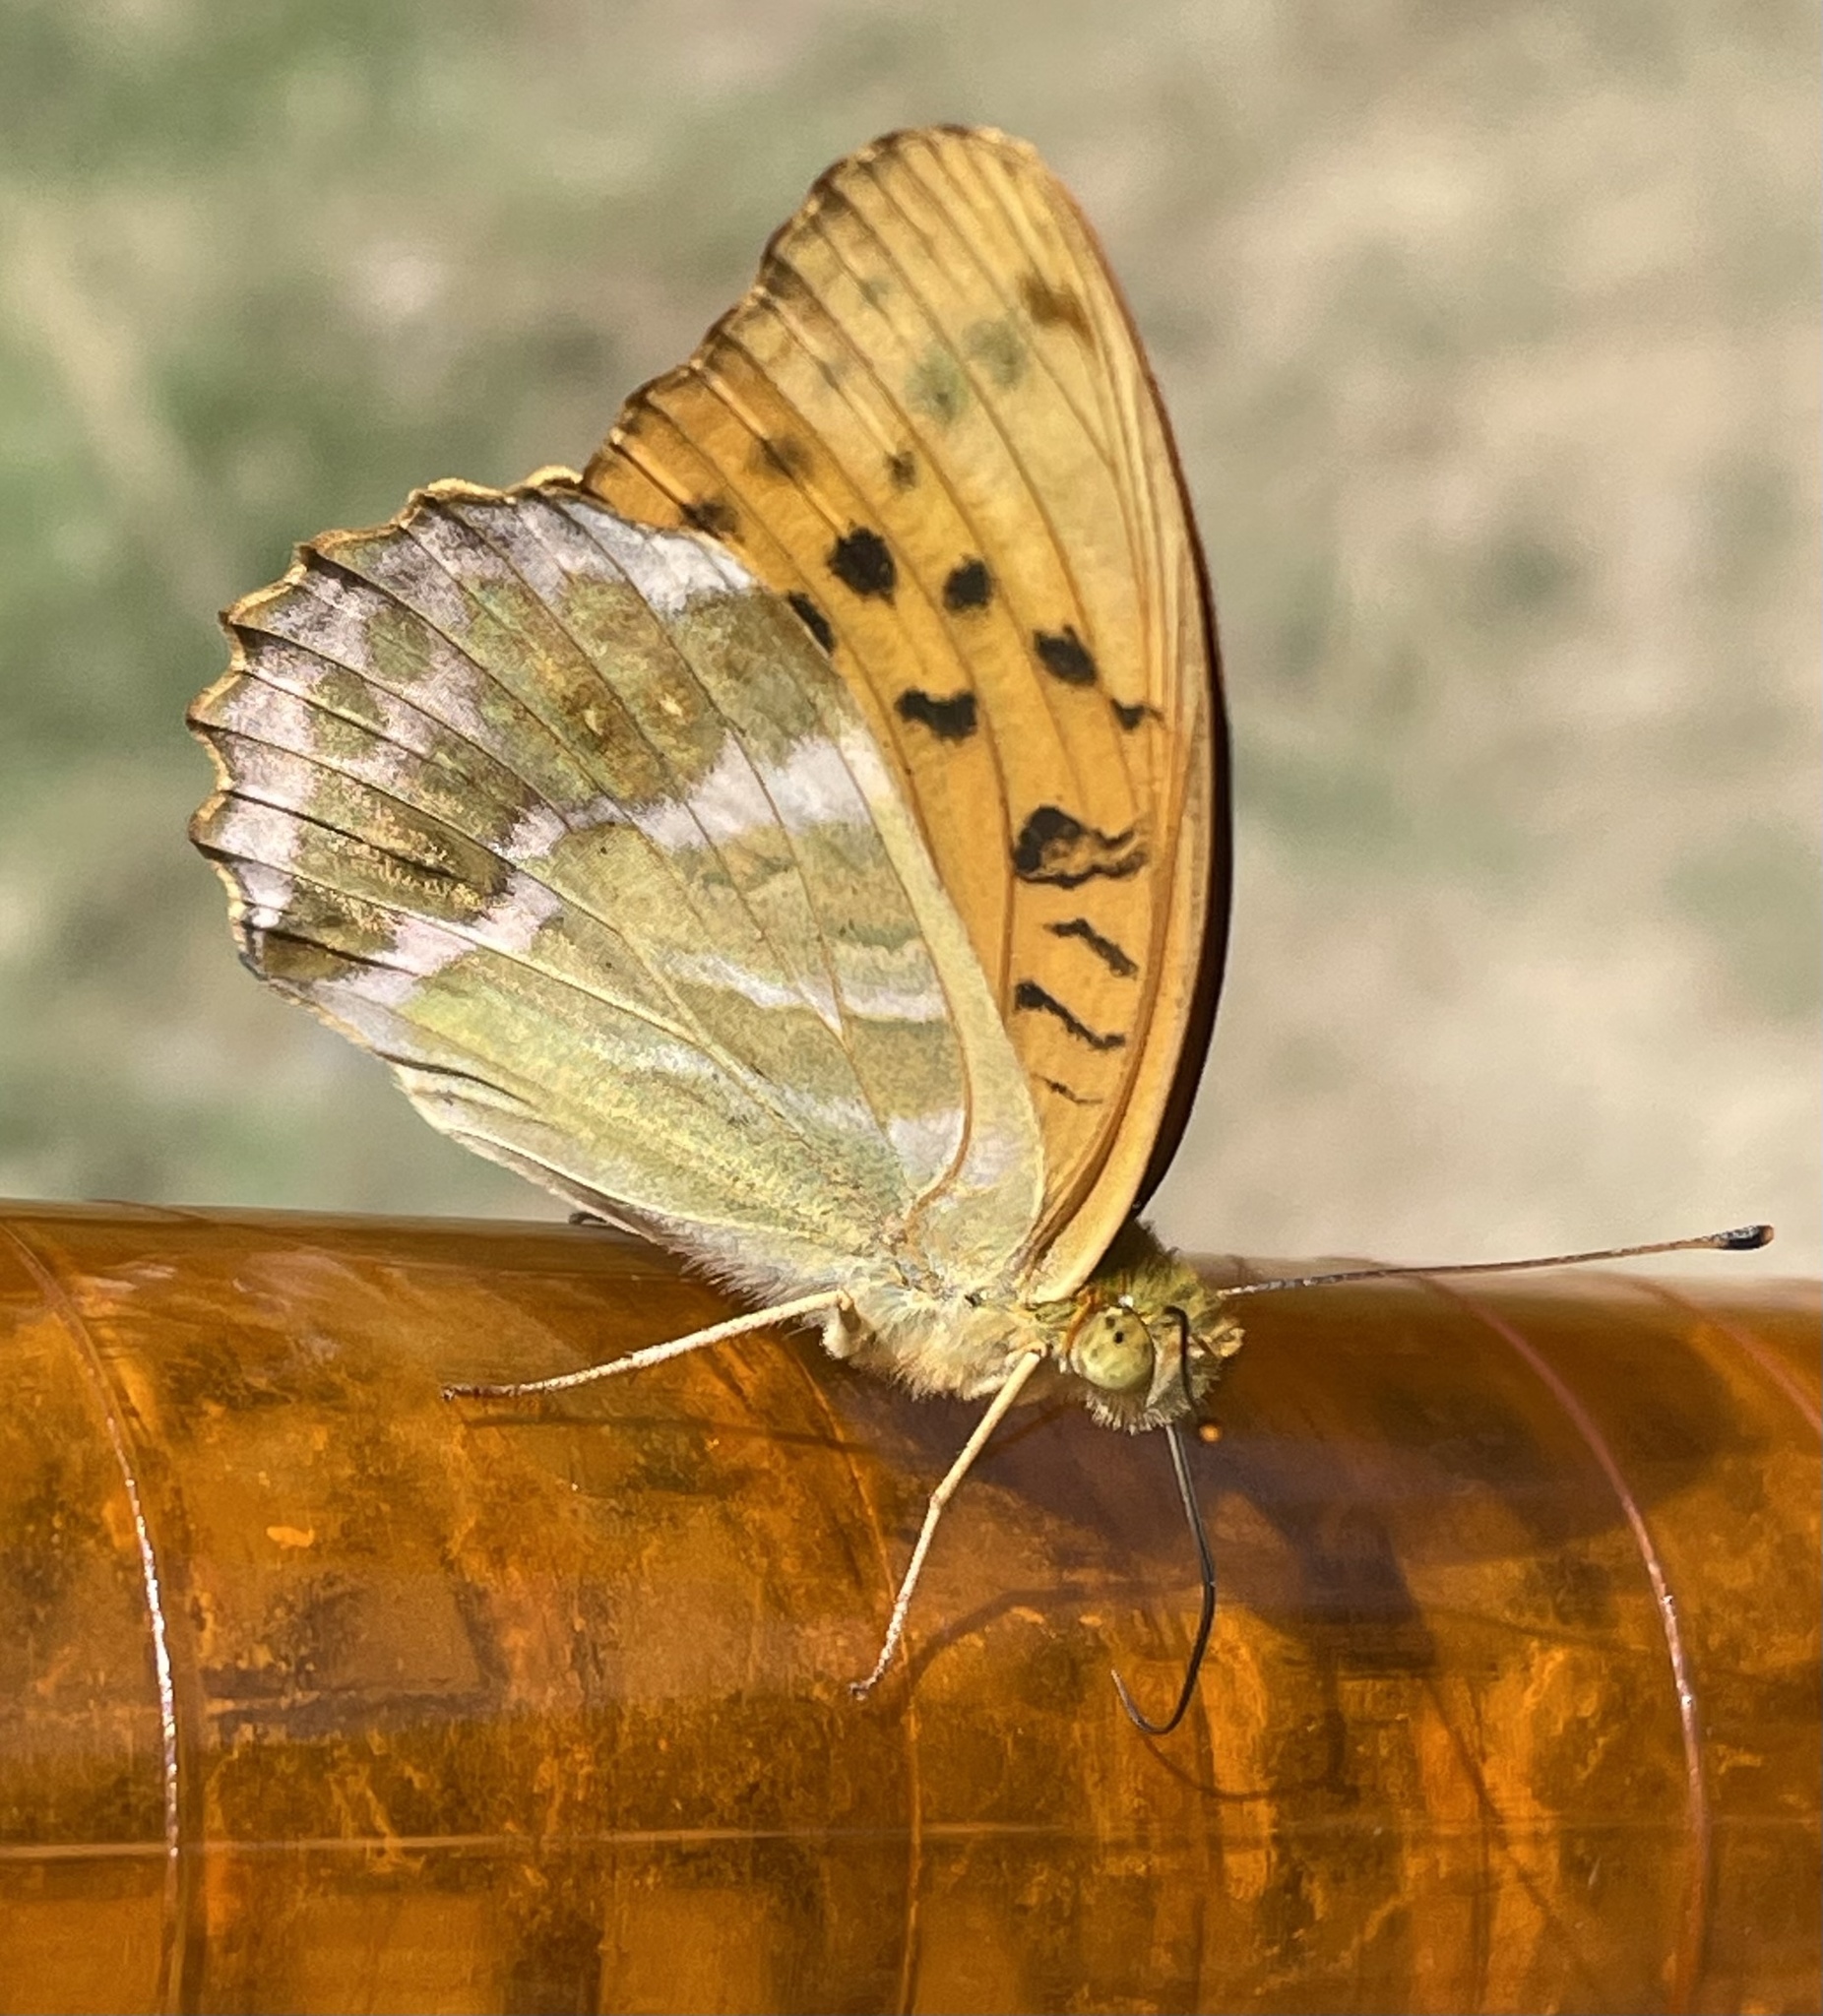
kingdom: Animalia
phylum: Arthropoda
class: Insecta
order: Lepidoptera
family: Nymphalidae
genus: Argynnis
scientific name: Argynnis paphia
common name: Silver-washed fritillary
